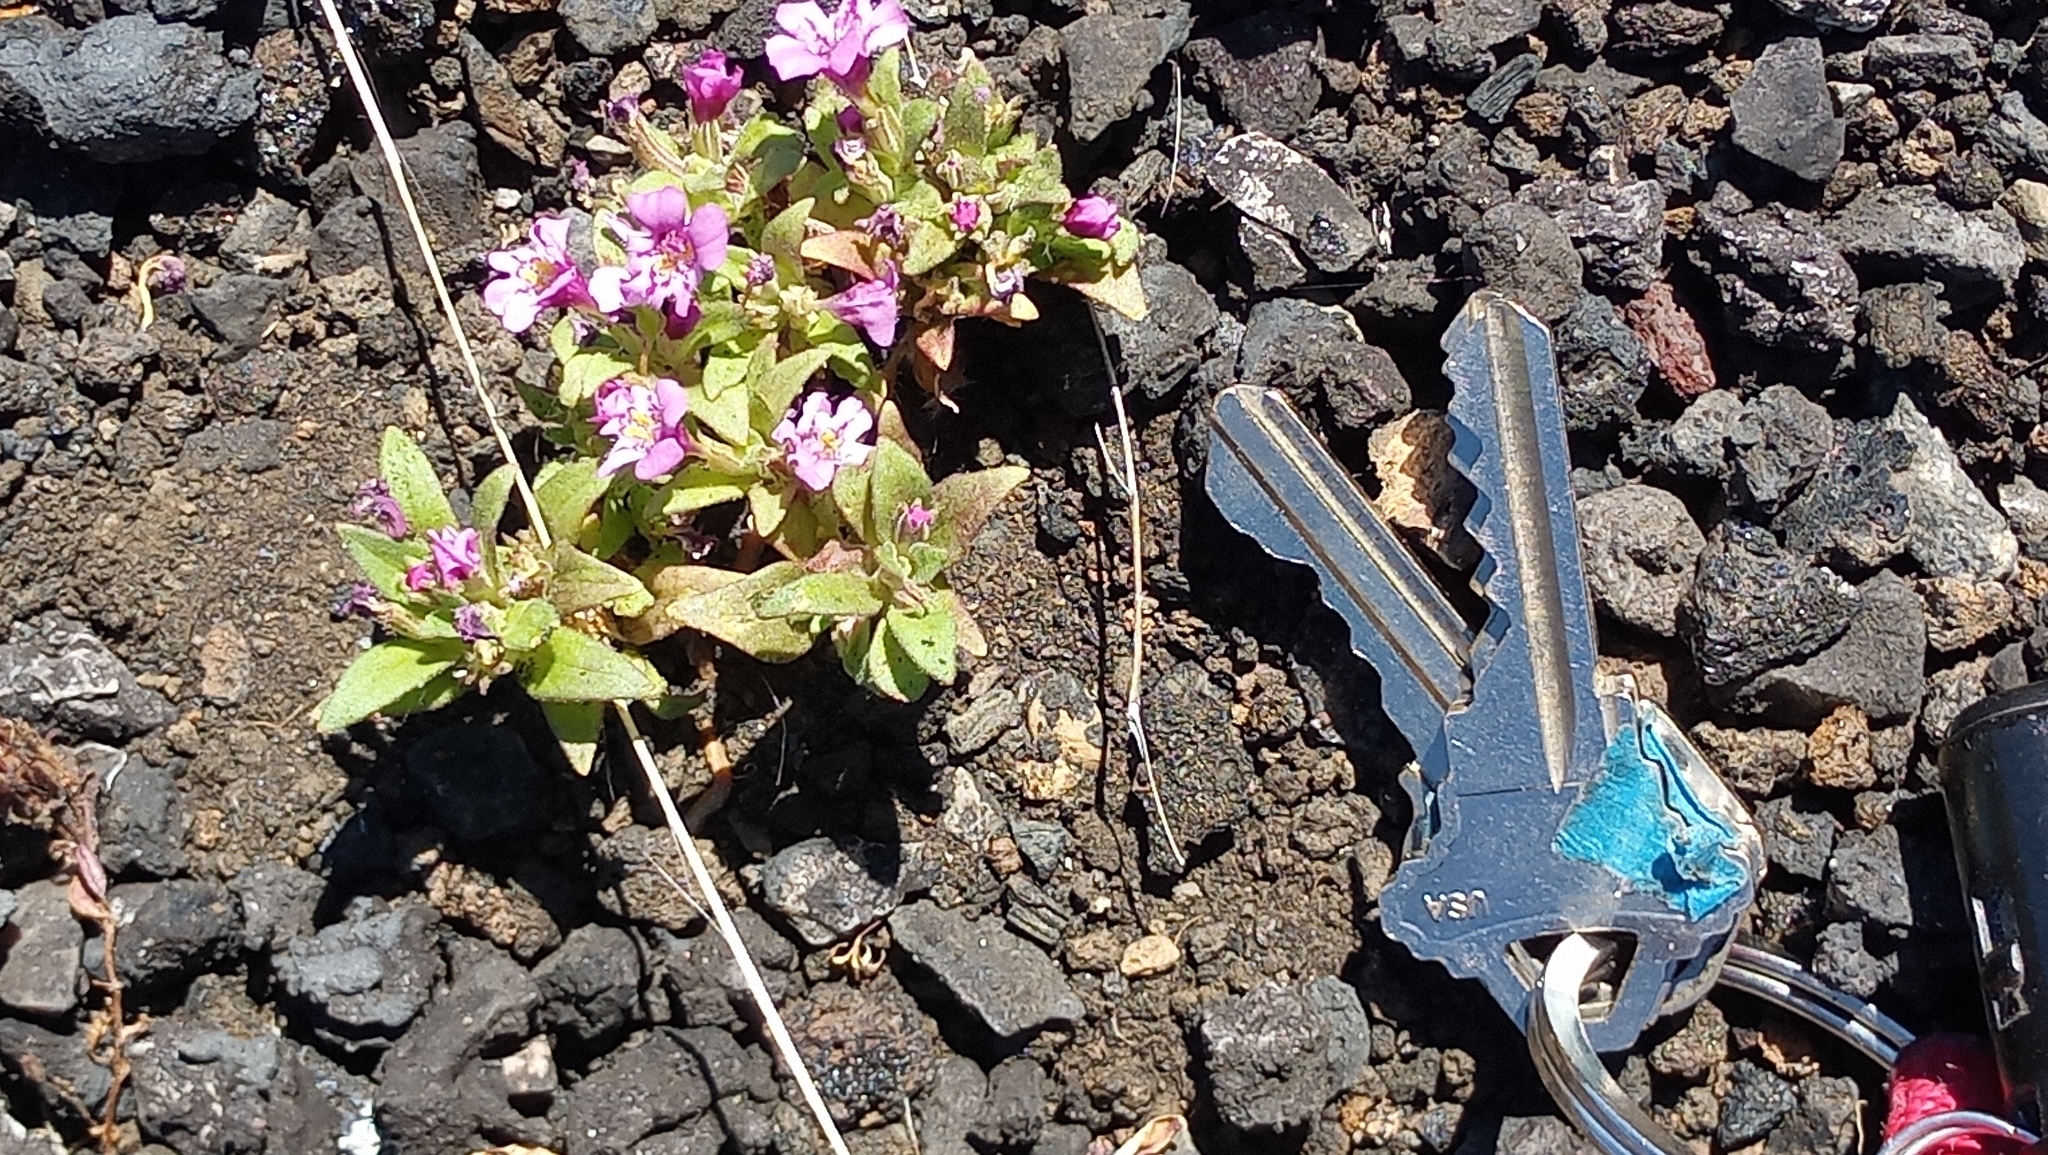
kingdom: Plantae
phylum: Tracheophyta
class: Magnoliopsida
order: Lamiales
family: Phrymaceae
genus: Diplacus
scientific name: Diplacus nanus
